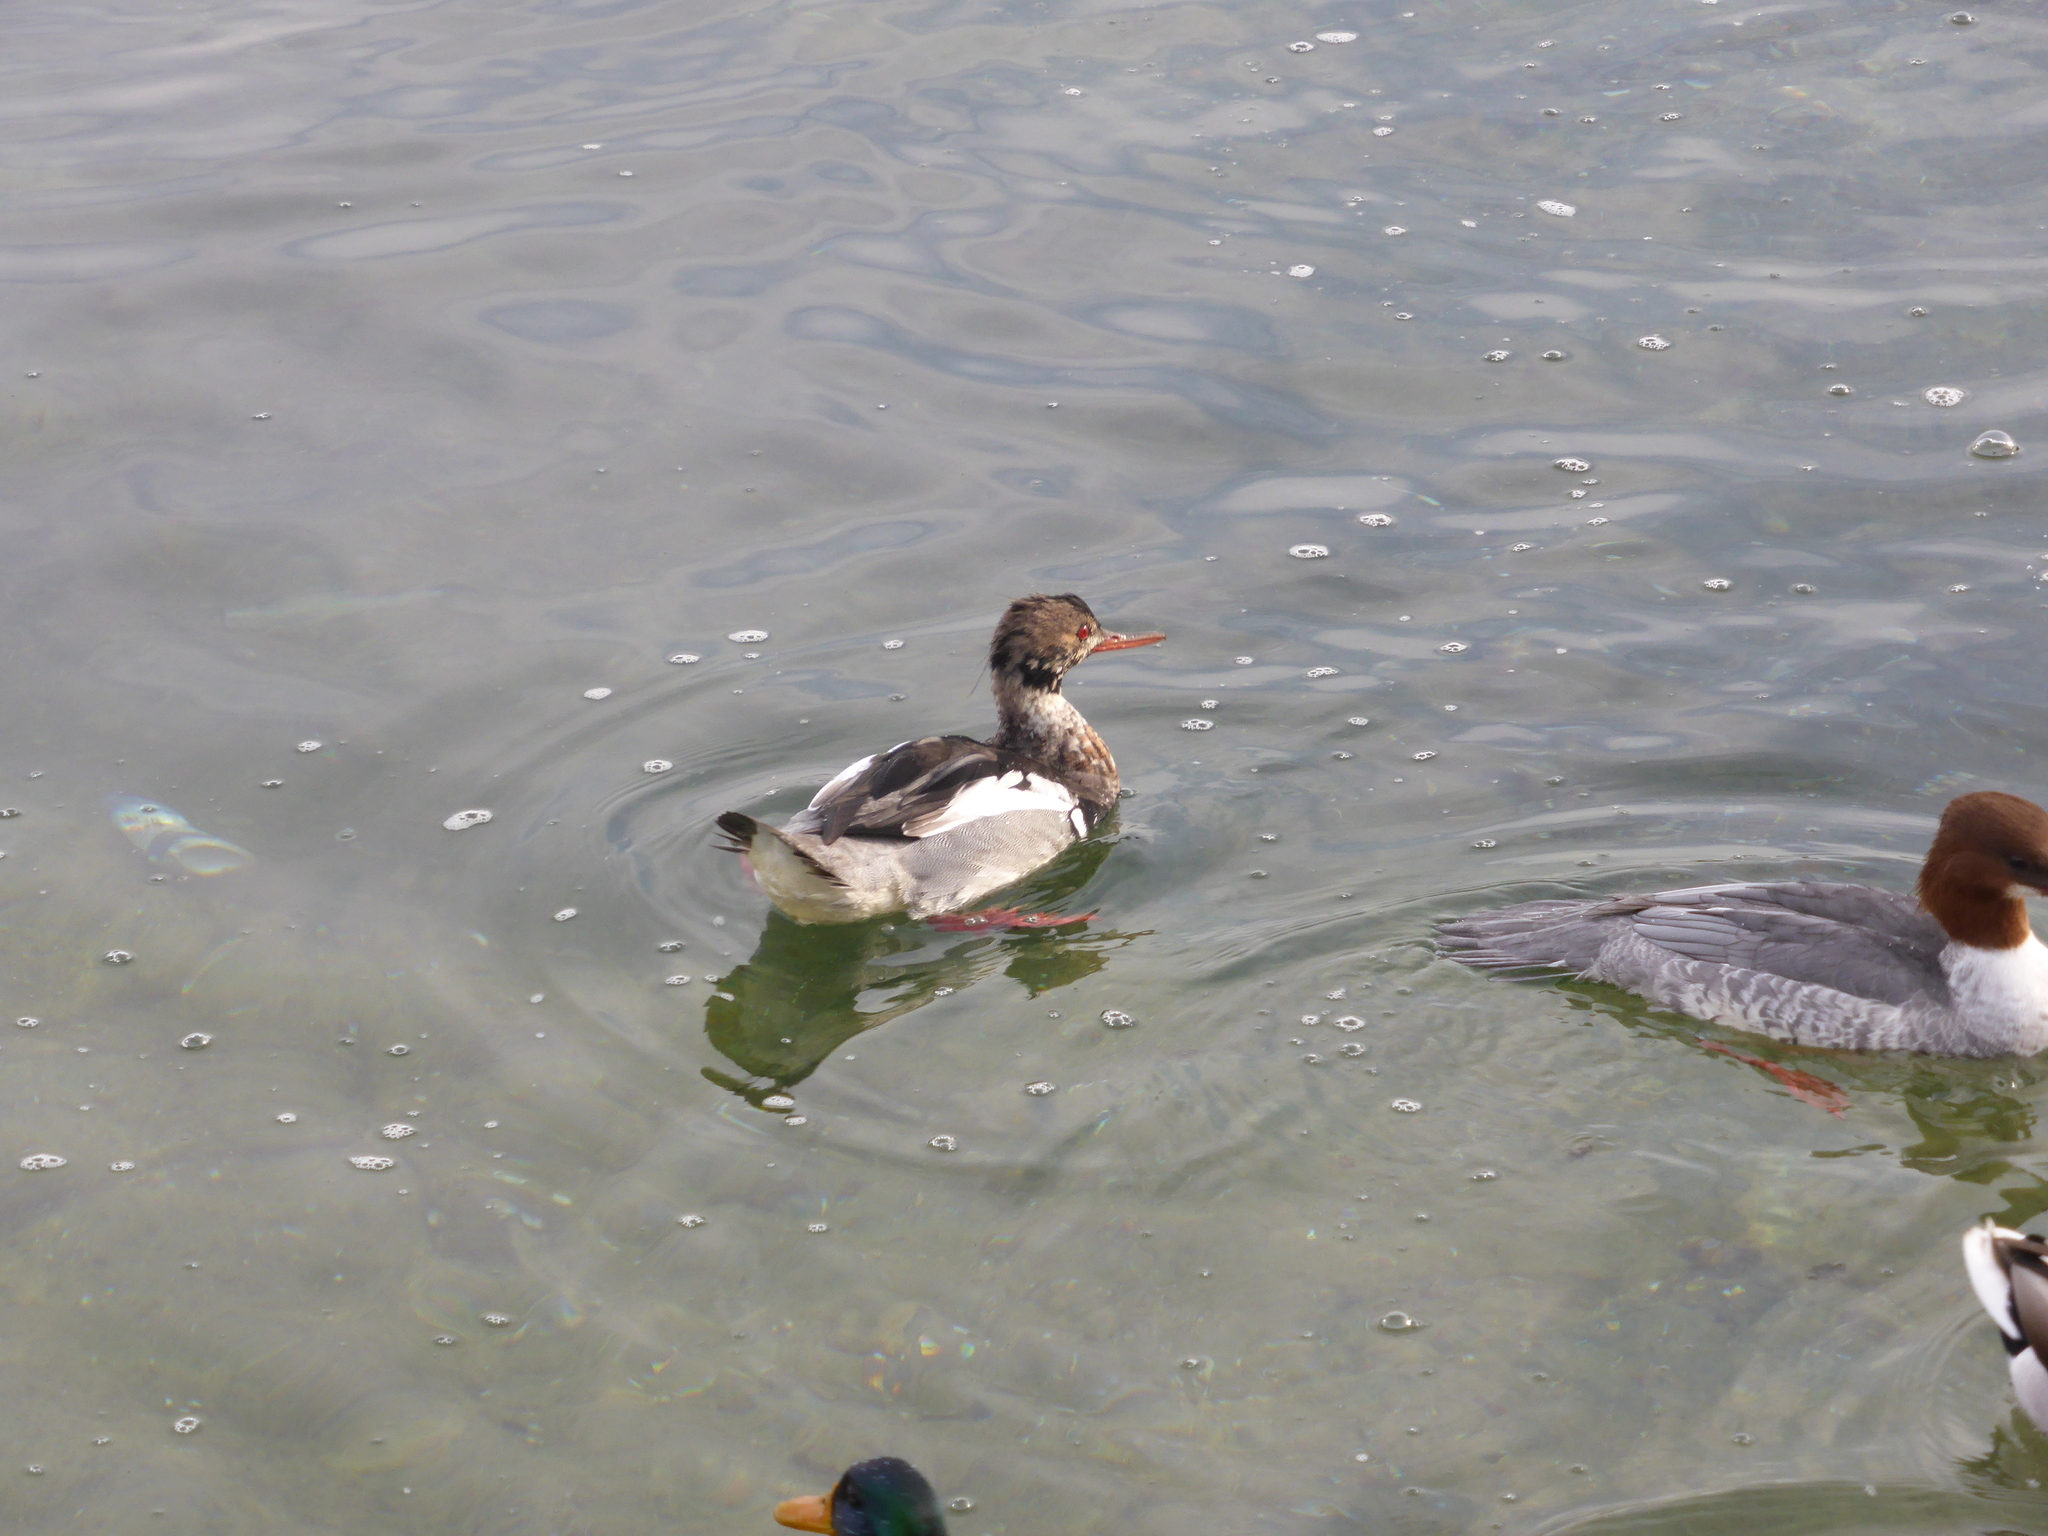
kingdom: Animalia
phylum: Chordata
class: Aves
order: Anseriformes
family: Anatidae
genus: Mergus
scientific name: Mergus serrator
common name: Red-breasted merganser
